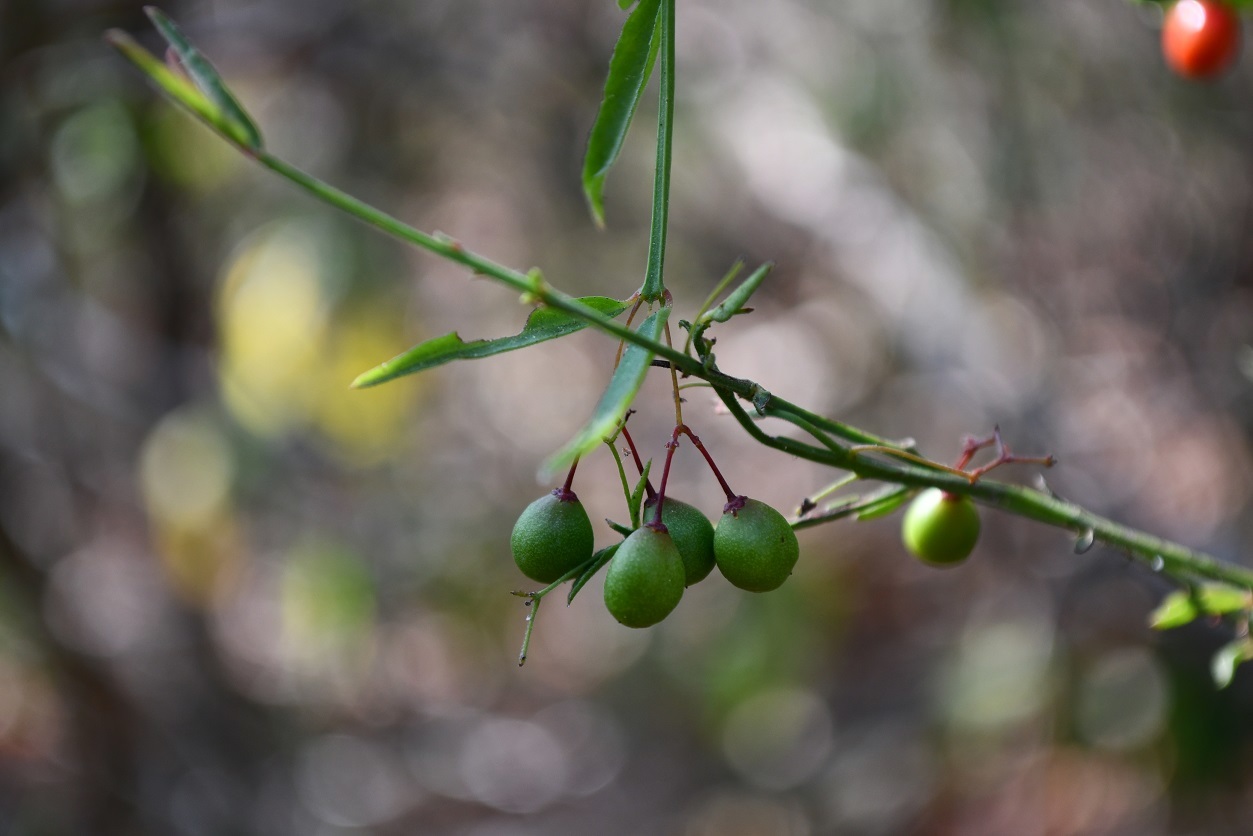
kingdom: Plantae
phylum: Tracheophyta
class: Magnoliopsida
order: Celastrales
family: Celastraceae
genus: Crossopetalum
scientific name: Crossopetalum uragoga
